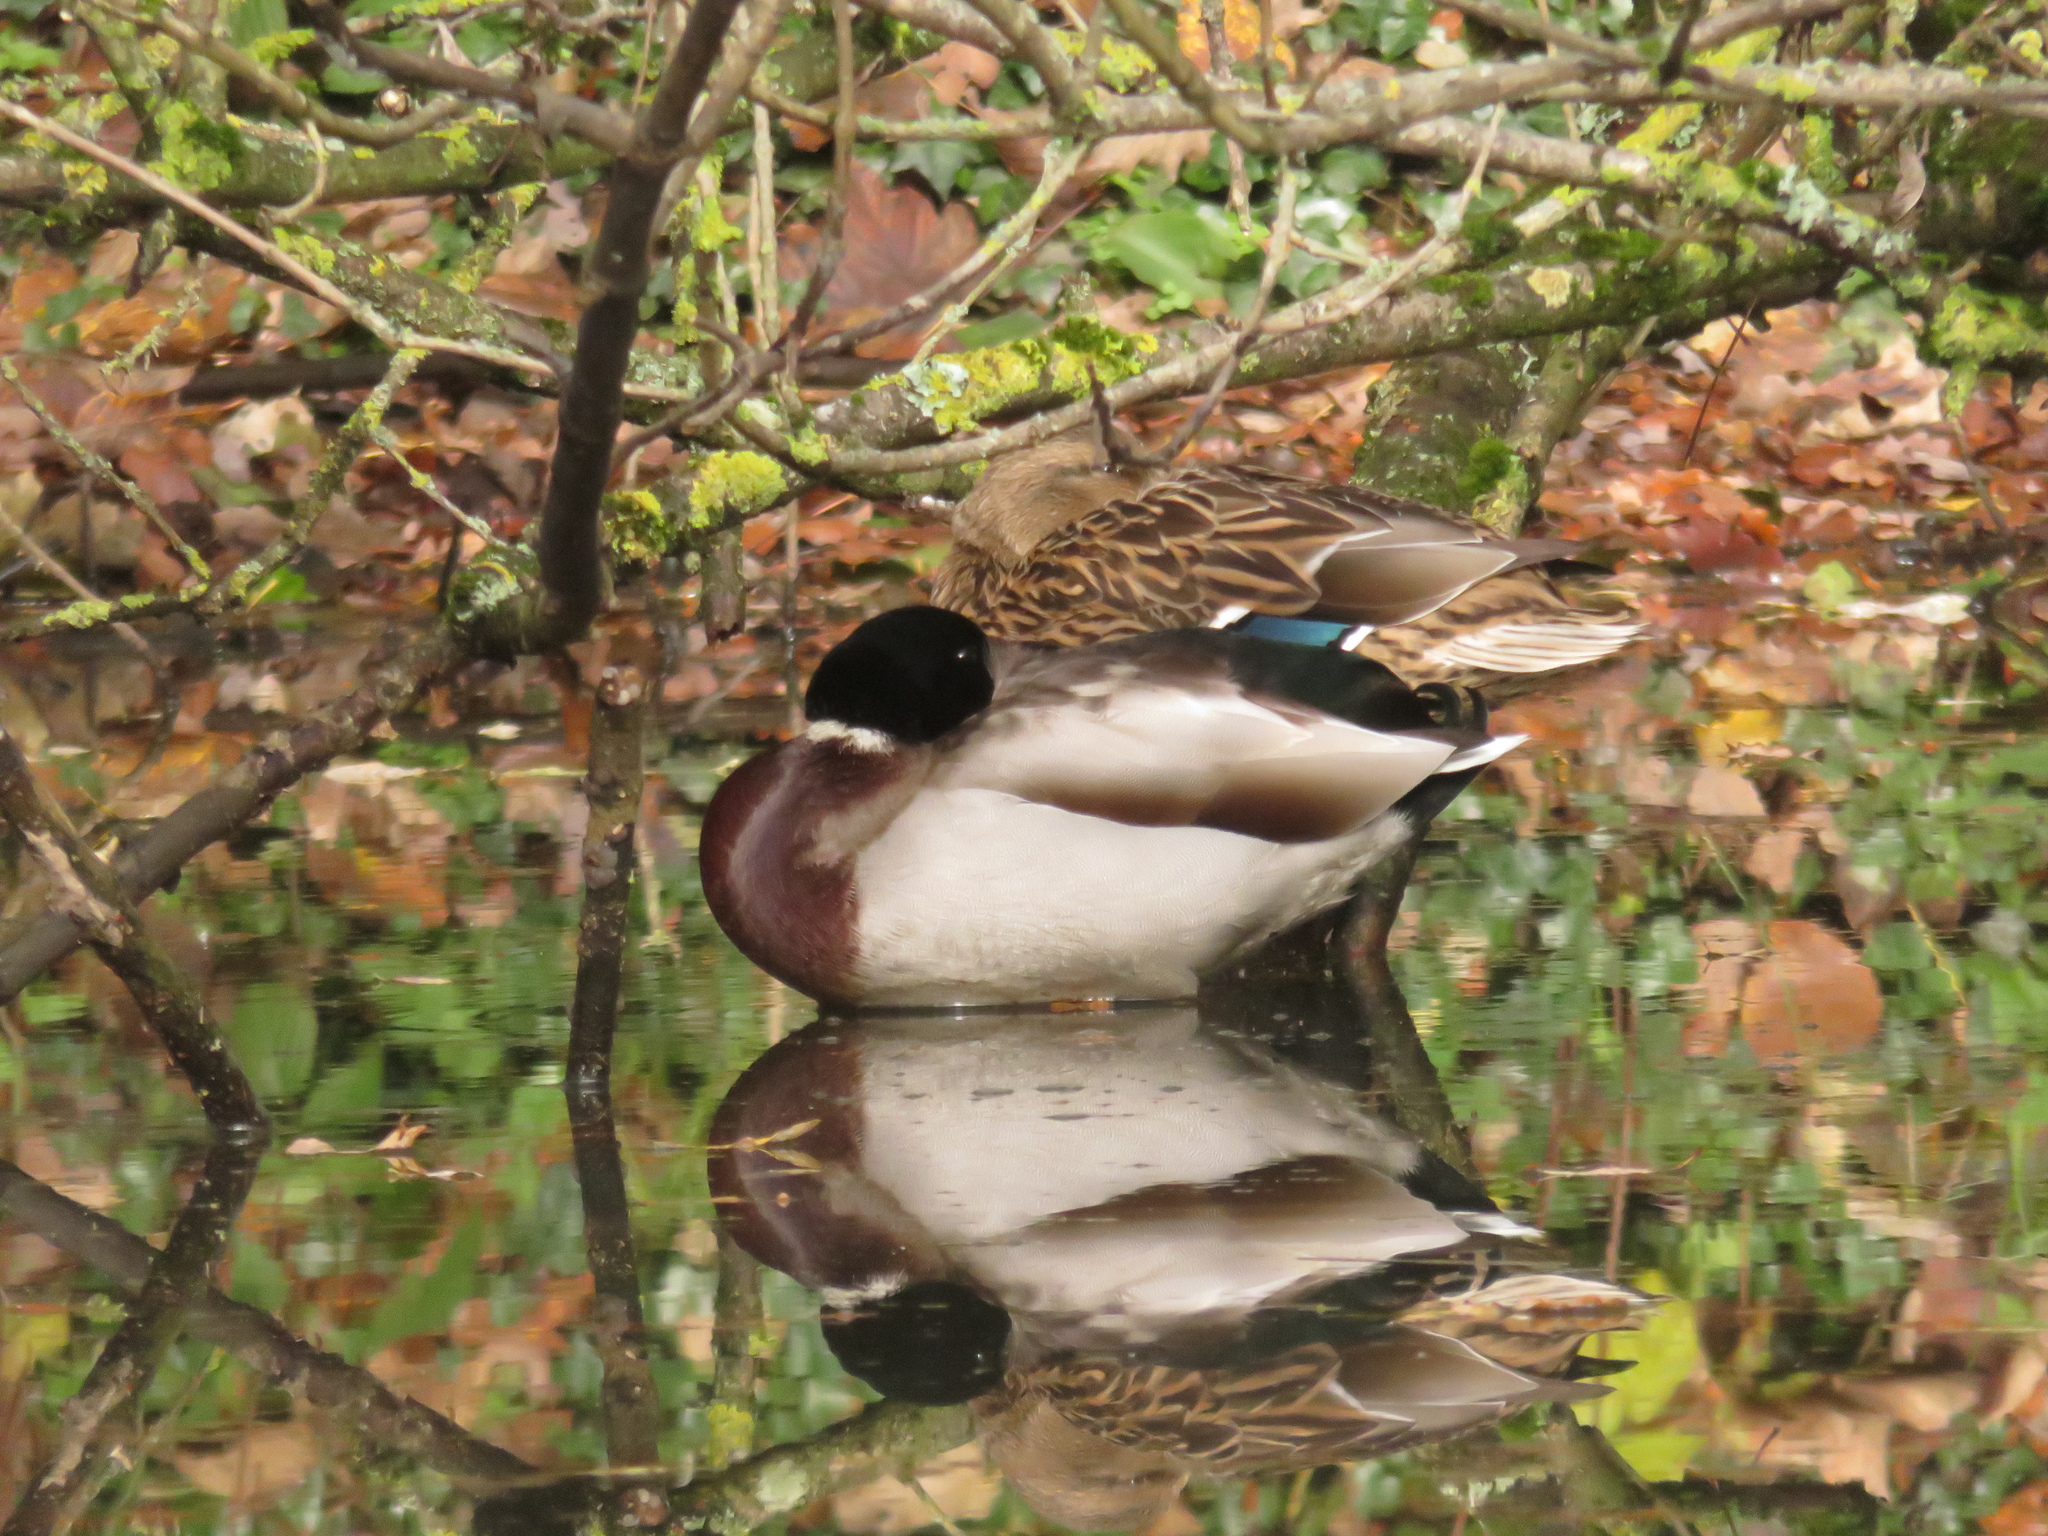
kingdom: Animalia
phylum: Chordata
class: Aves
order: Anseriformes
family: Anatidae
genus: Anas
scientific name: Anas platyrhynchos
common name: Mallard
